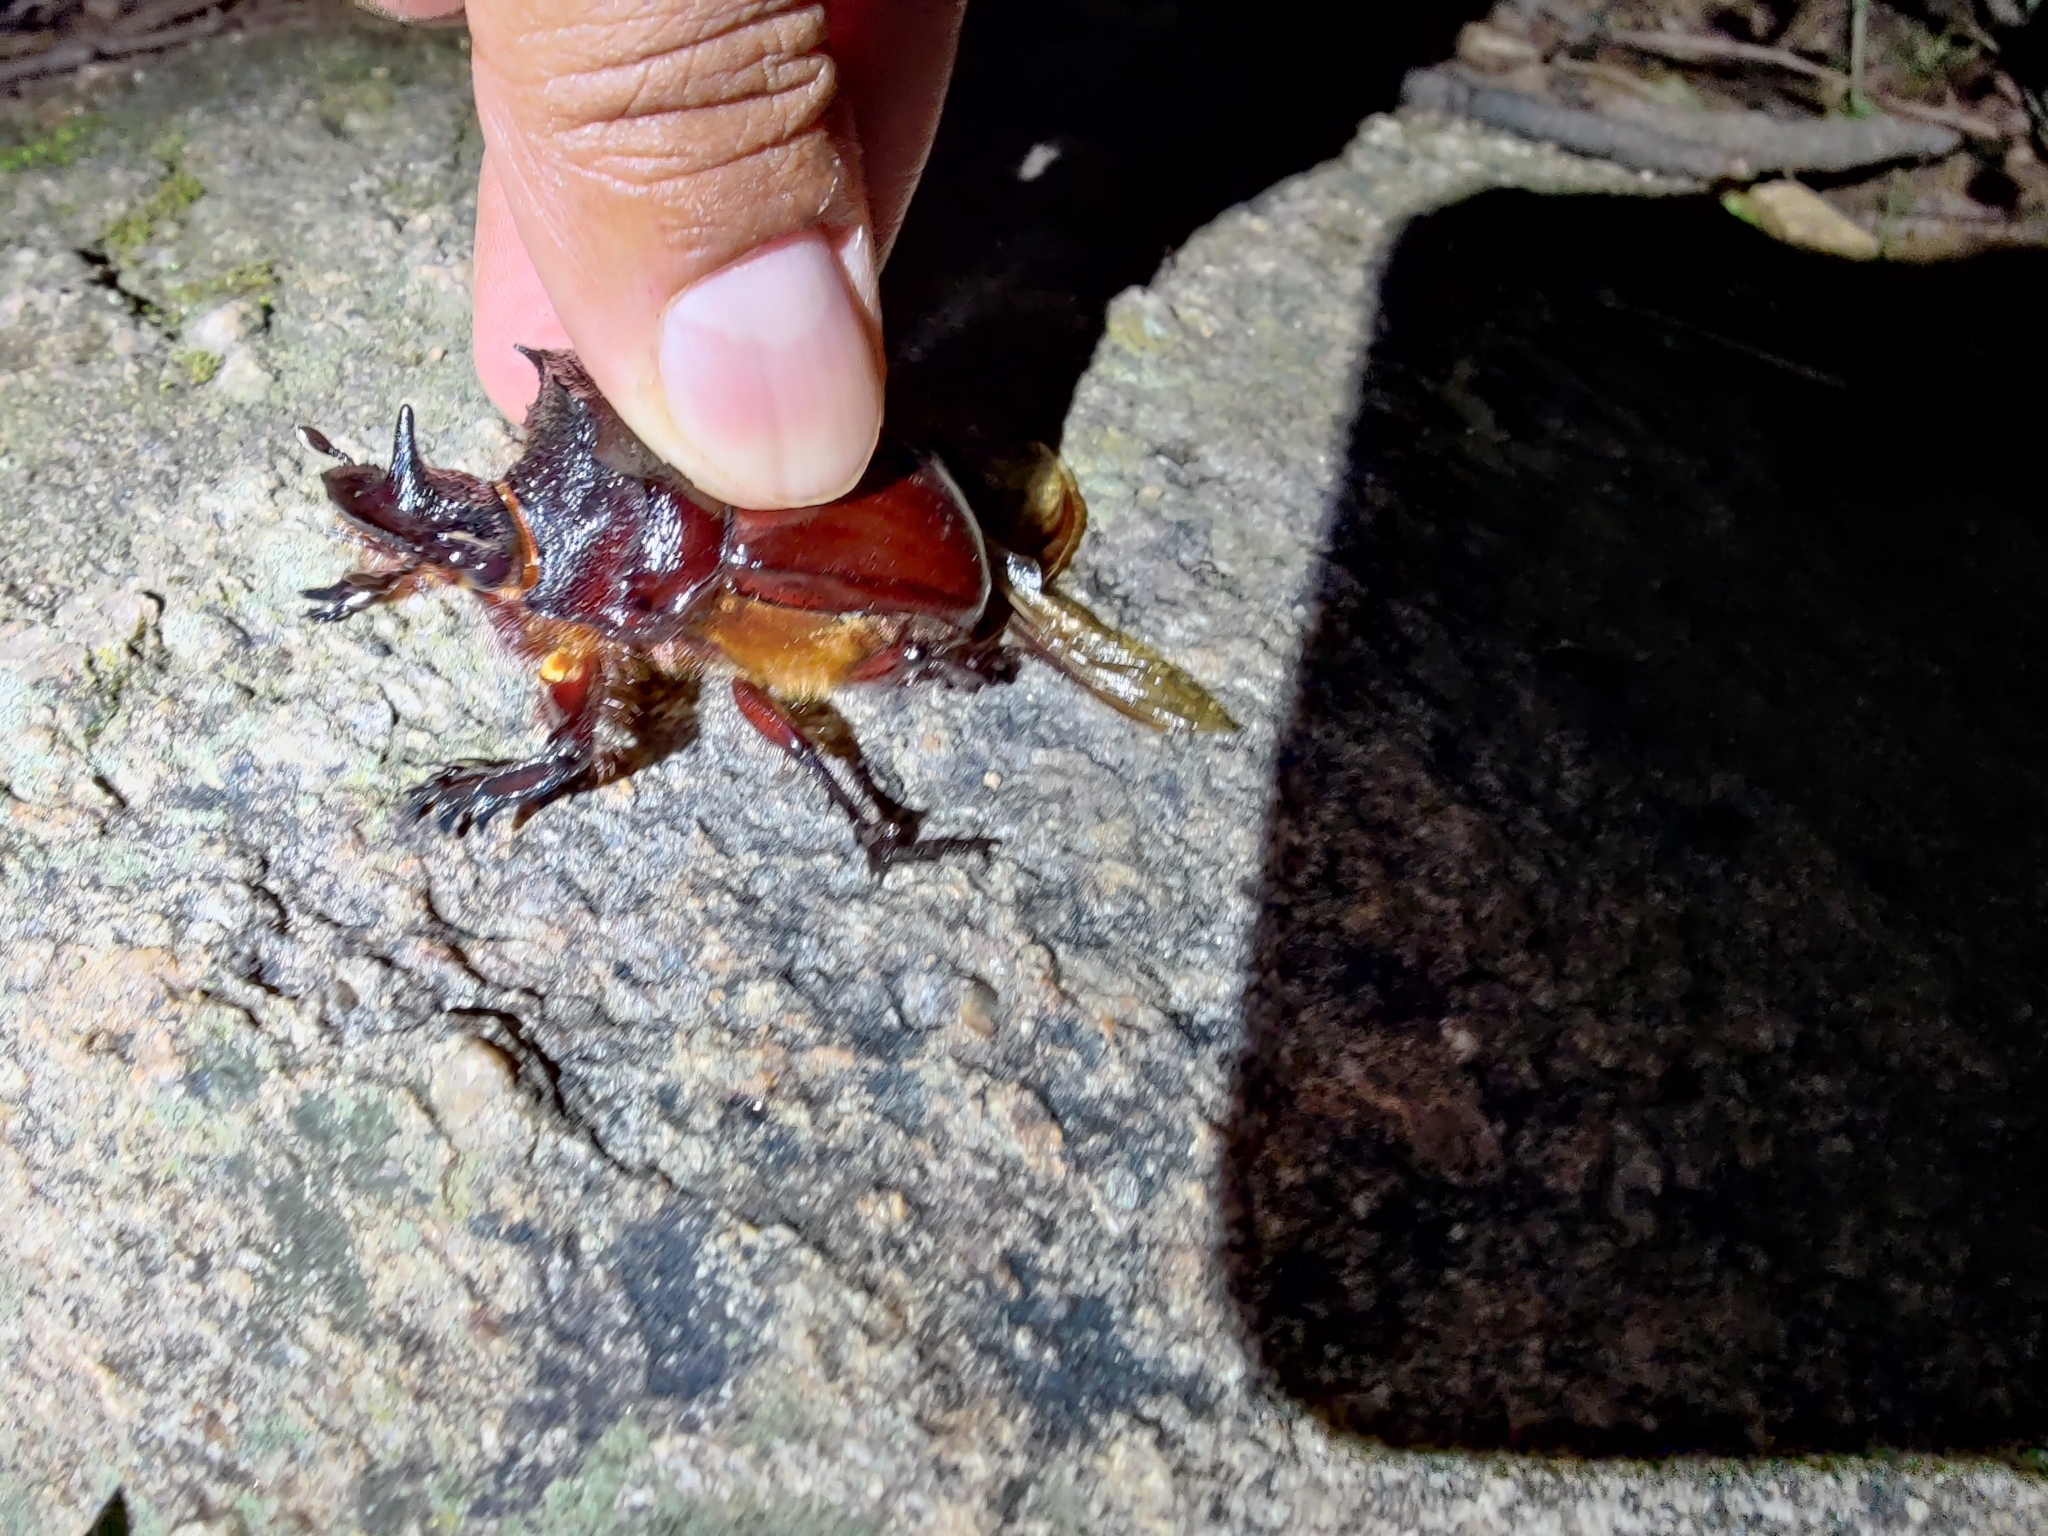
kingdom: Animalia
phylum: Arthropoda
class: Insecta
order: Coleoptera
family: Scarabaeidae
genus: Heliocopris
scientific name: Heliocopris ares
